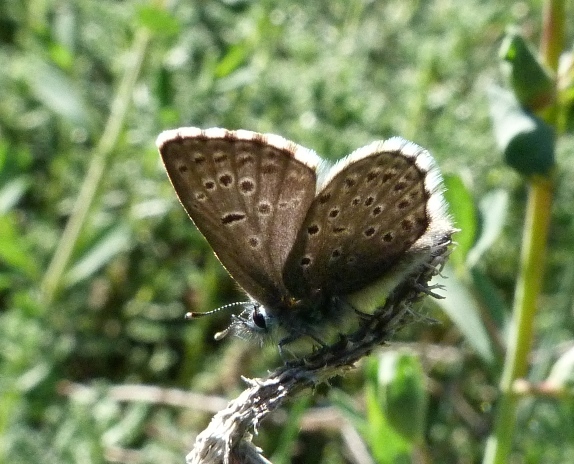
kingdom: Animalia
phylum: Arthropoda
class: Insecta
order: Lepidoptera
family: Lycaenidae
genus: Pseudophilotes
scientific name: Pseudophilotes baton
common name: Baton blue
